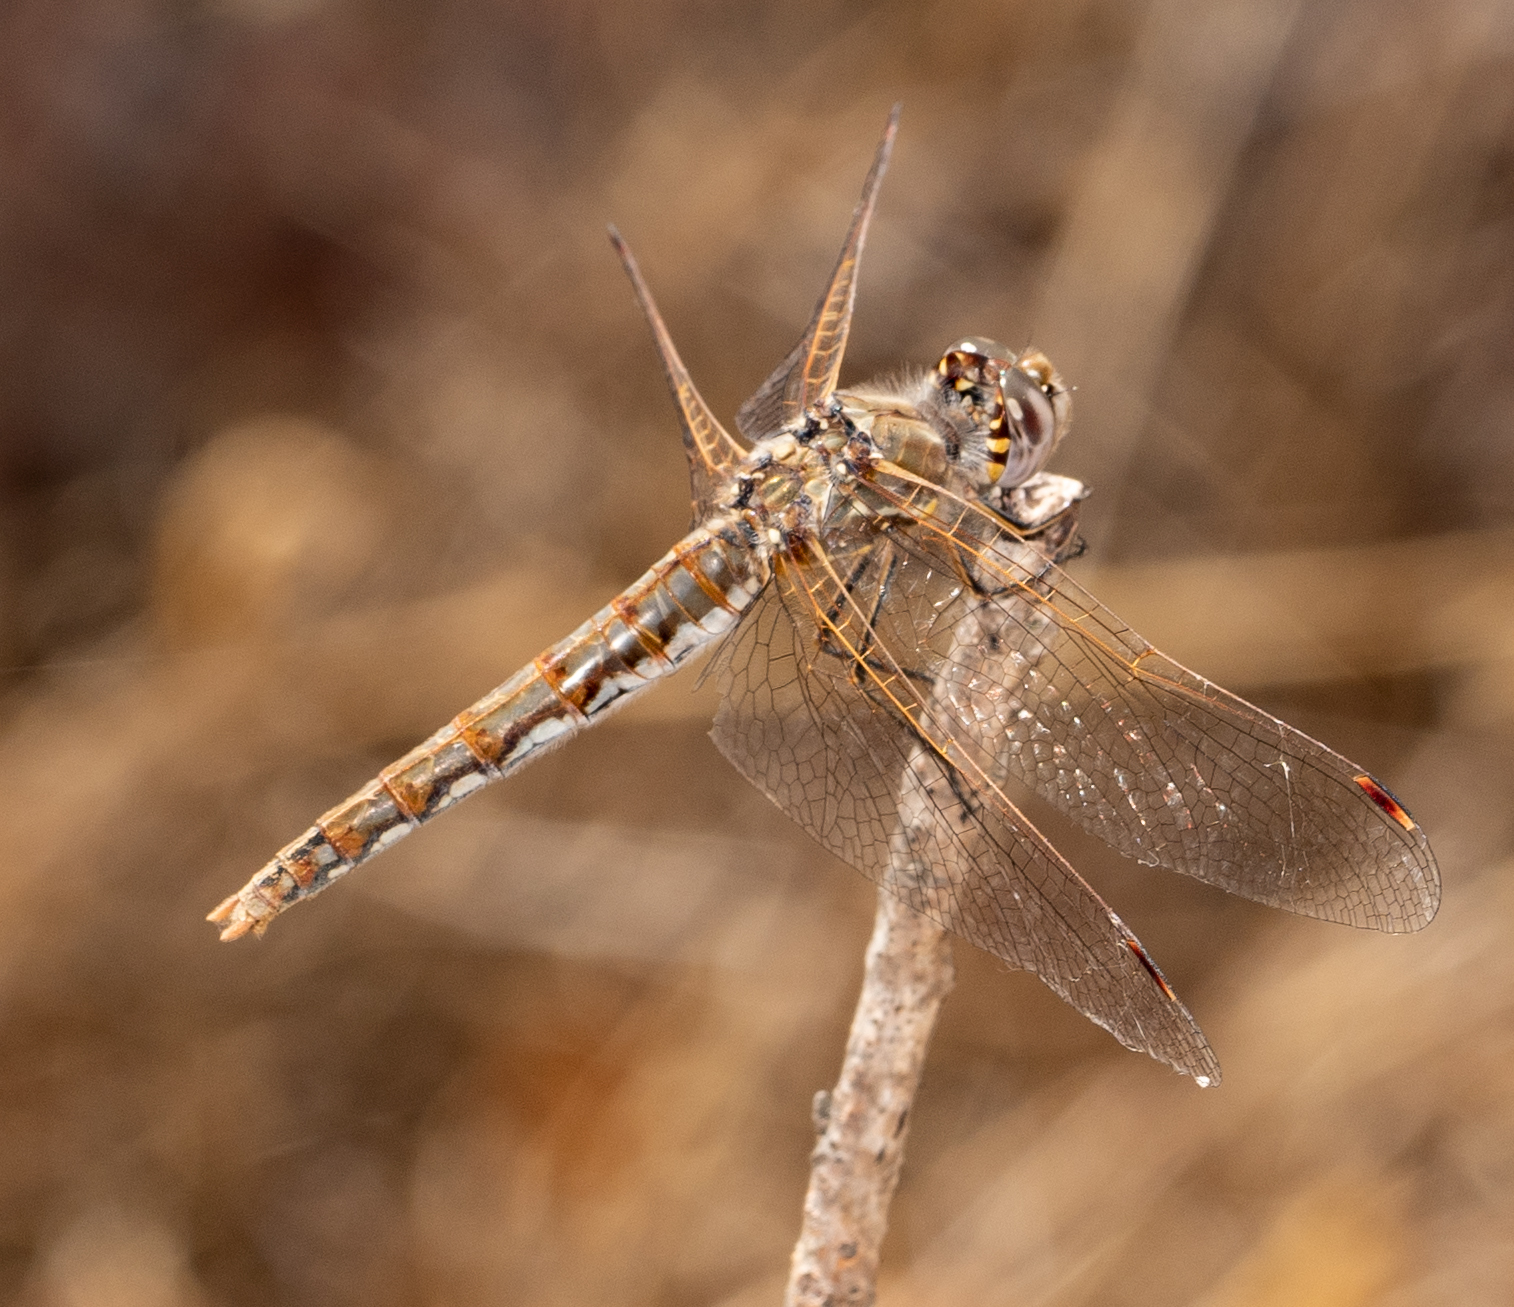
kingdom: Animalia
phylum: Arthropoda
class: Insecta
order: Odonata
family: Libellulidae
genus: Sympetrum
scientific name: Sympetrum corruptum
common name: Variegated meadowhawk
